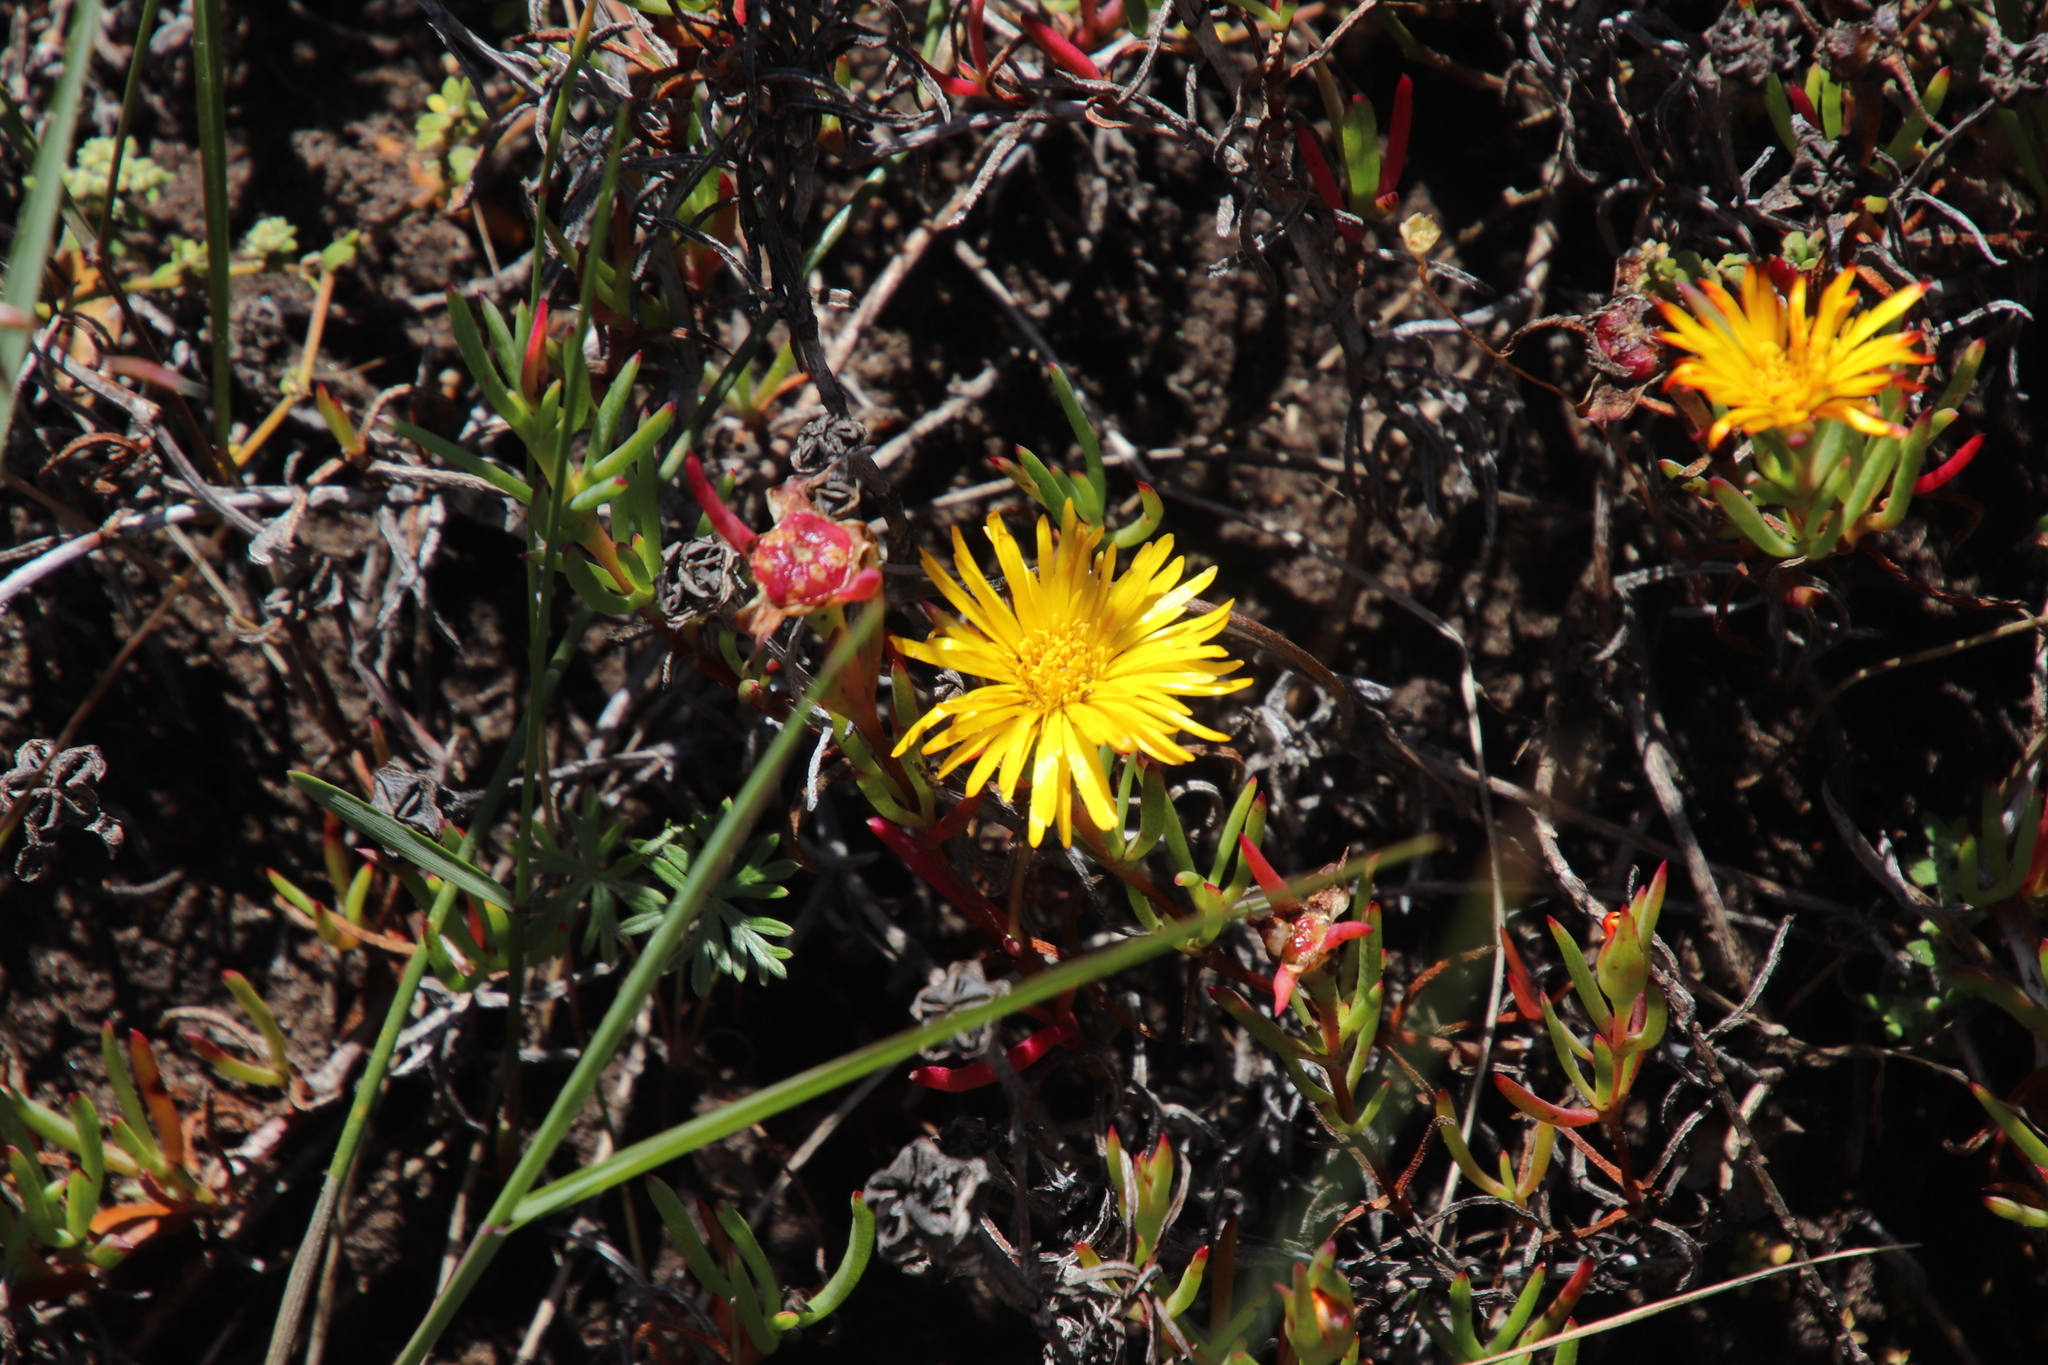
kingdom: Plantae
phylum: Tracheophyta
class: Magnoliopsida
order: Caryophyllales
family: Aizoaceae
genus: Lampranthus
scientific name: Lampranthus bicolor
